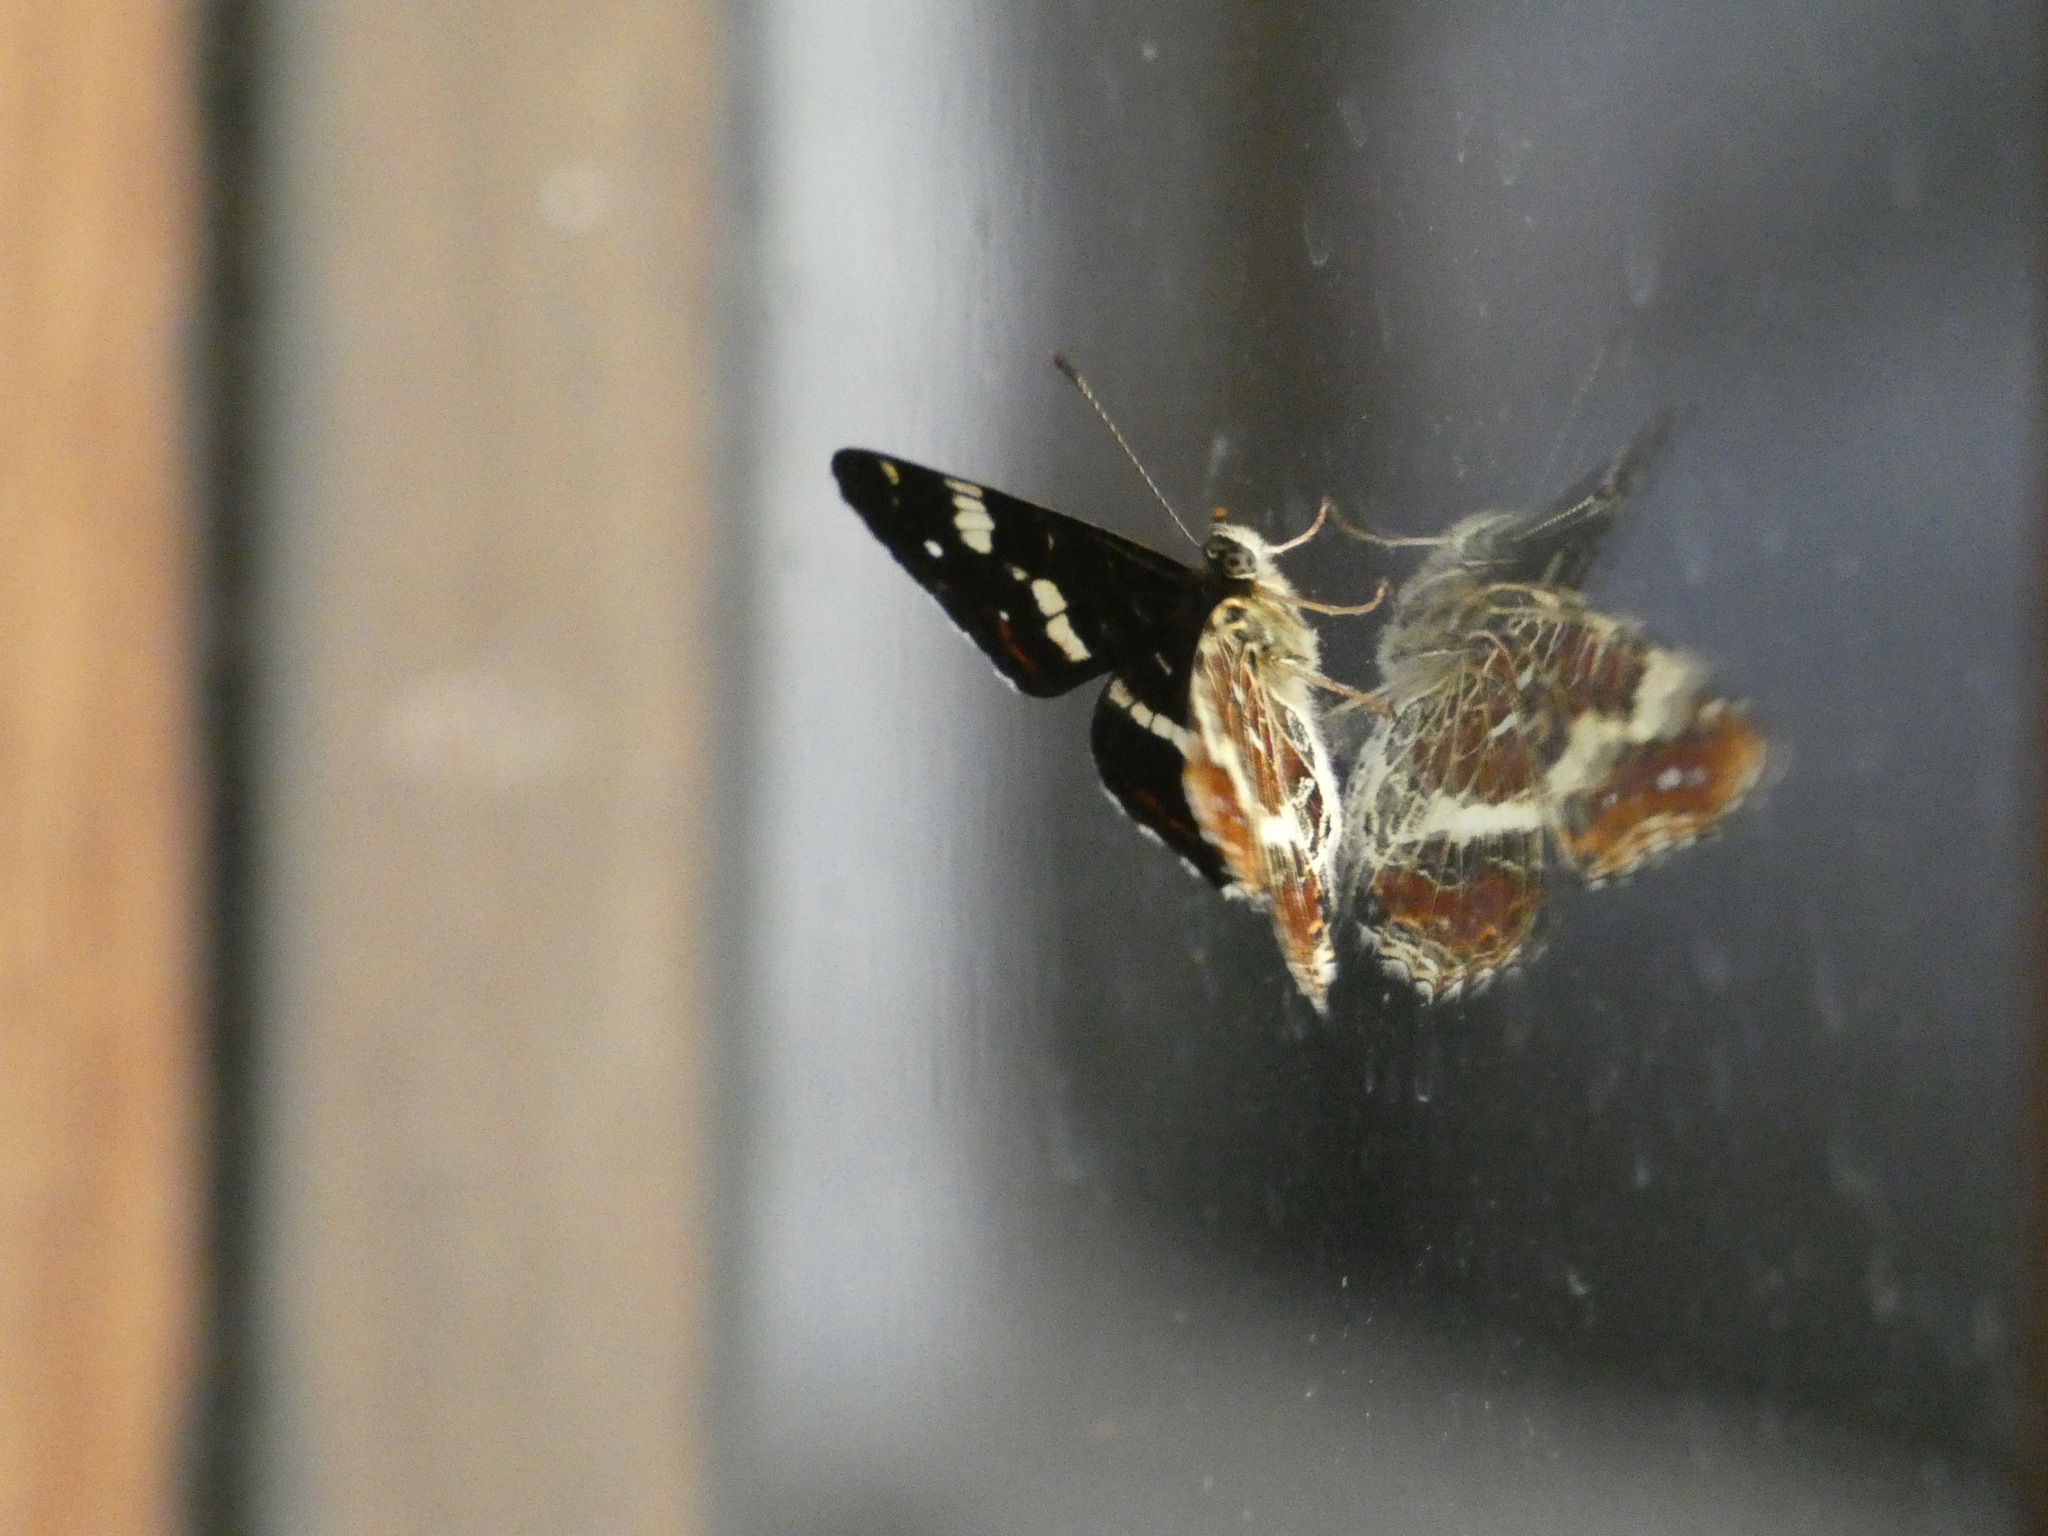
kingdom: Animalia
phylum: Arthropoda
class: Insecta
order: Lepidoptera
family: Nymphalidae
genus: Araschnia
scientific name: Araschnia levana
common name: Map butterfly
